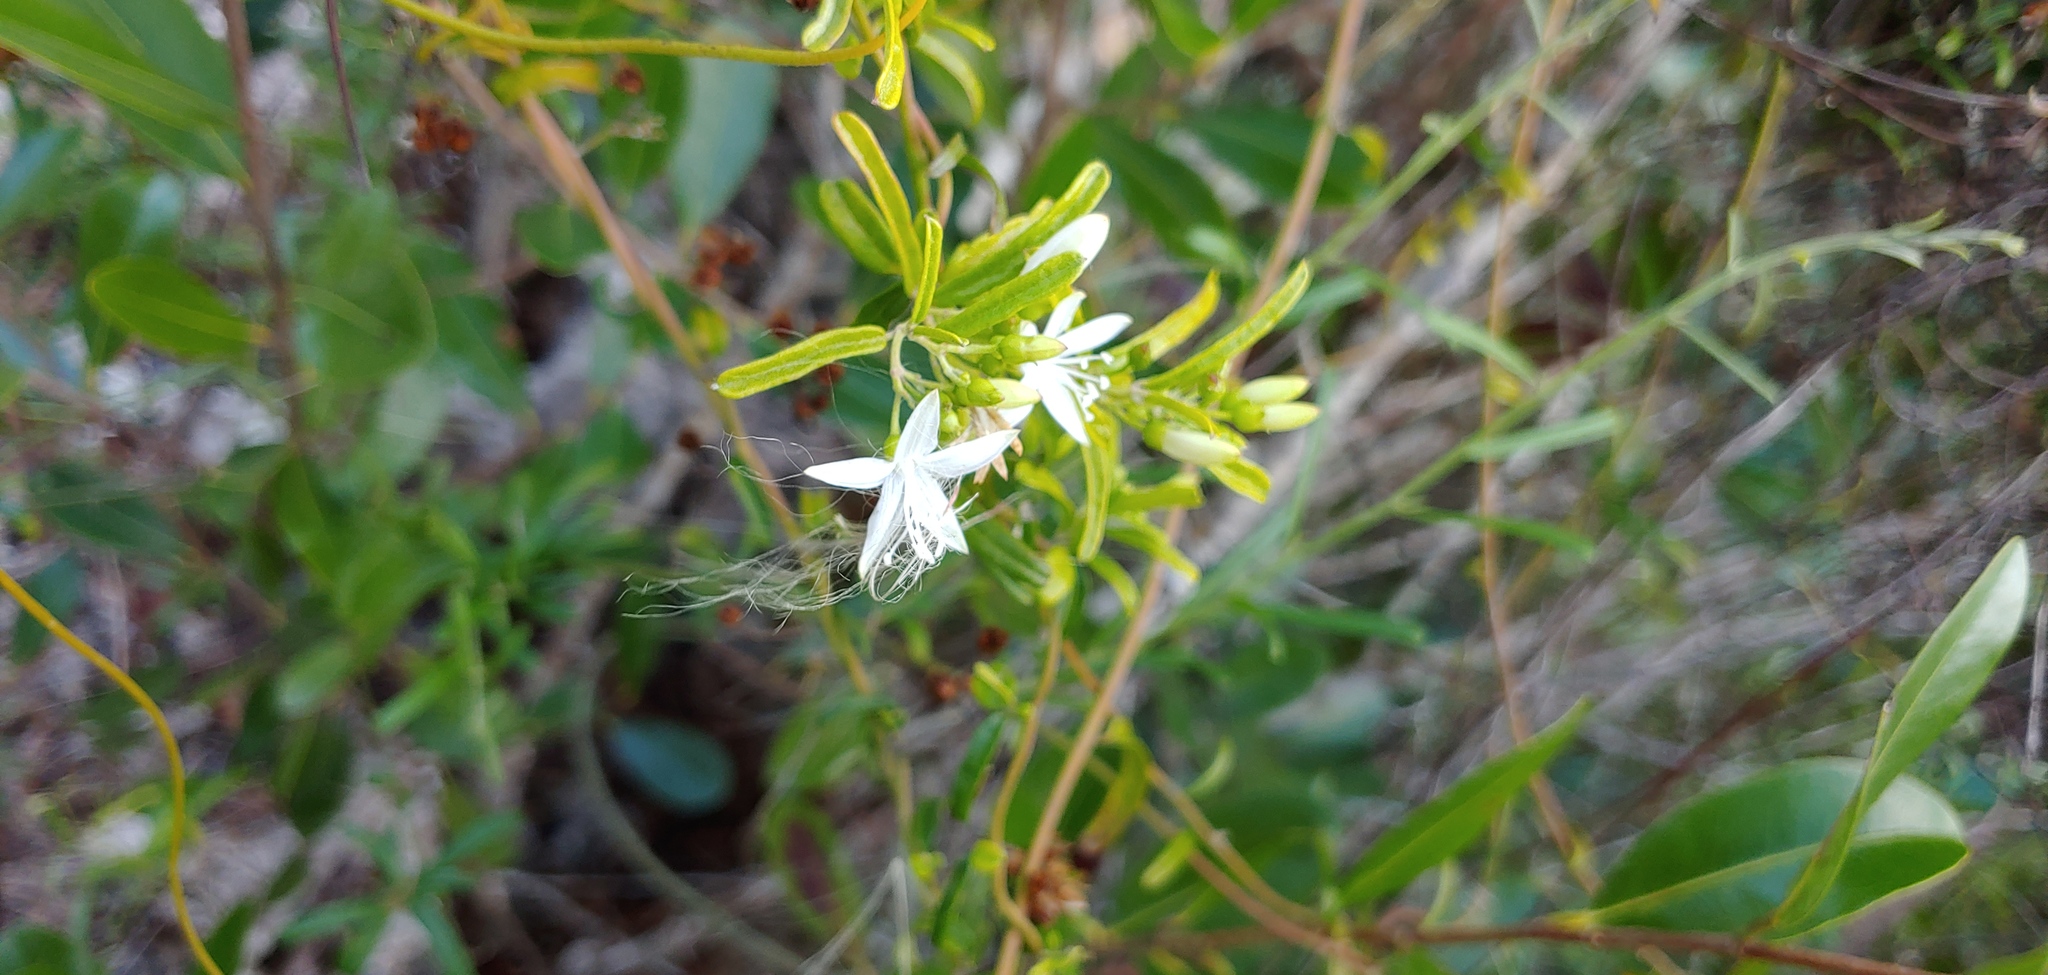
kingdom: Plantae
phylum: Tracheophyta
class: Magnoliopsida
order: Solanales
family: Convolvulaceae
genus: Jacquemontia
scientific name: Jacquemontia havanensis
